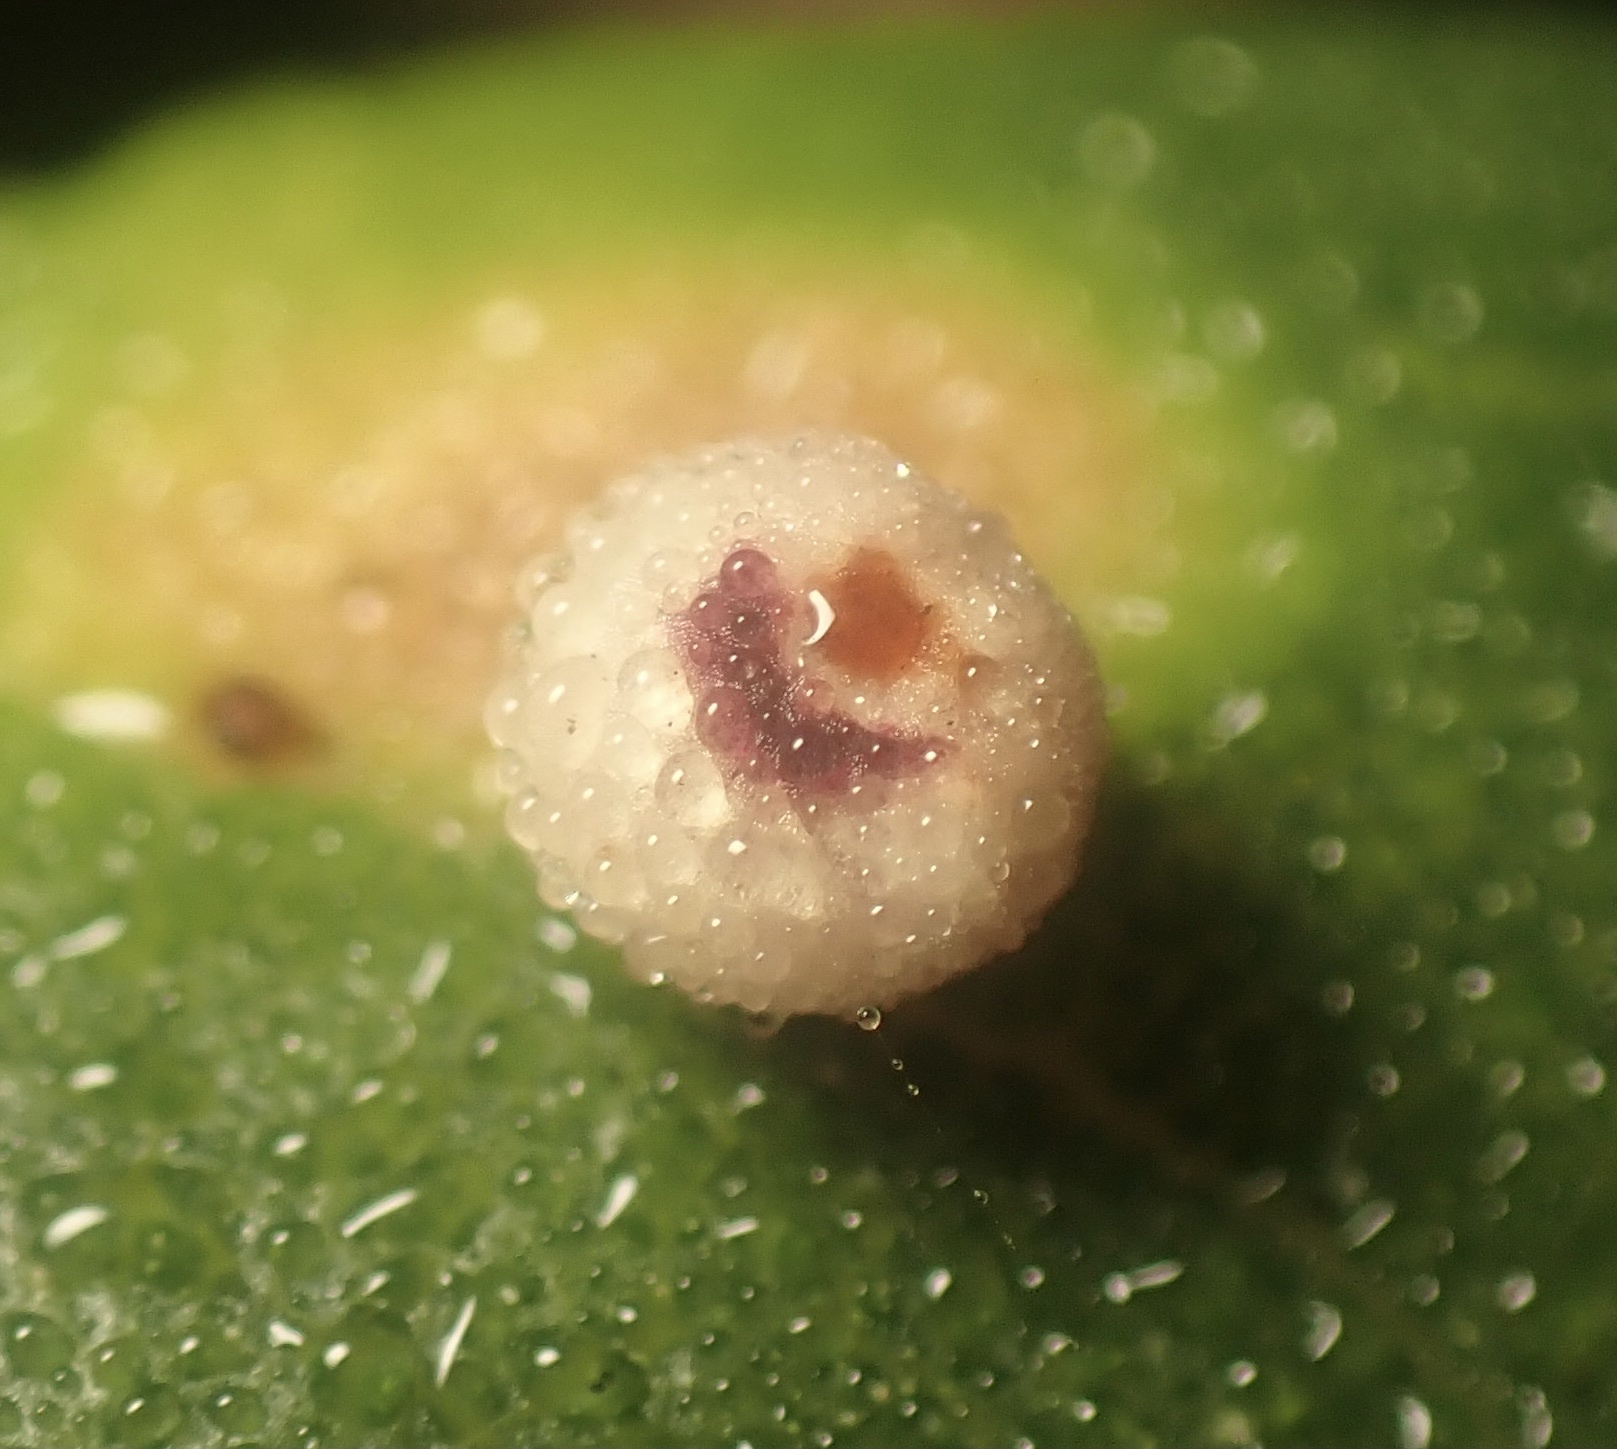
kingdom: Animalia
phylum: Arthropoda
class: Insecta
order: Hymenoptera
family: Cynipidae
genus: Dryocosmus
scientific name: Dryocosmus
